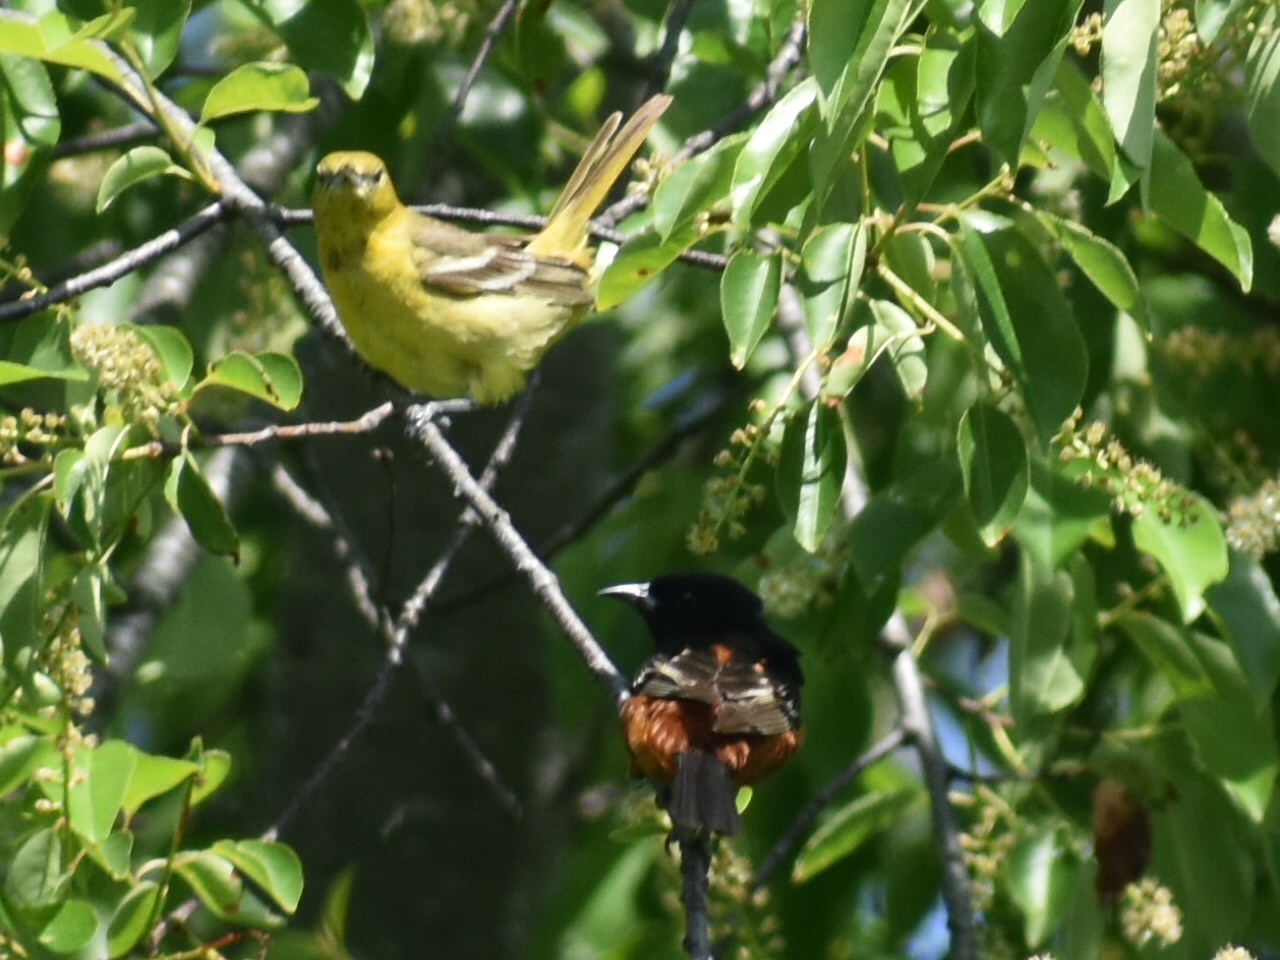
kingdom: Animalia
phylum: Chordata
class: Aves
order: Passeriformes
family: Icteridae
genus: Icterus
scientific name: Icterus spurius
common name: Orchard oriole
